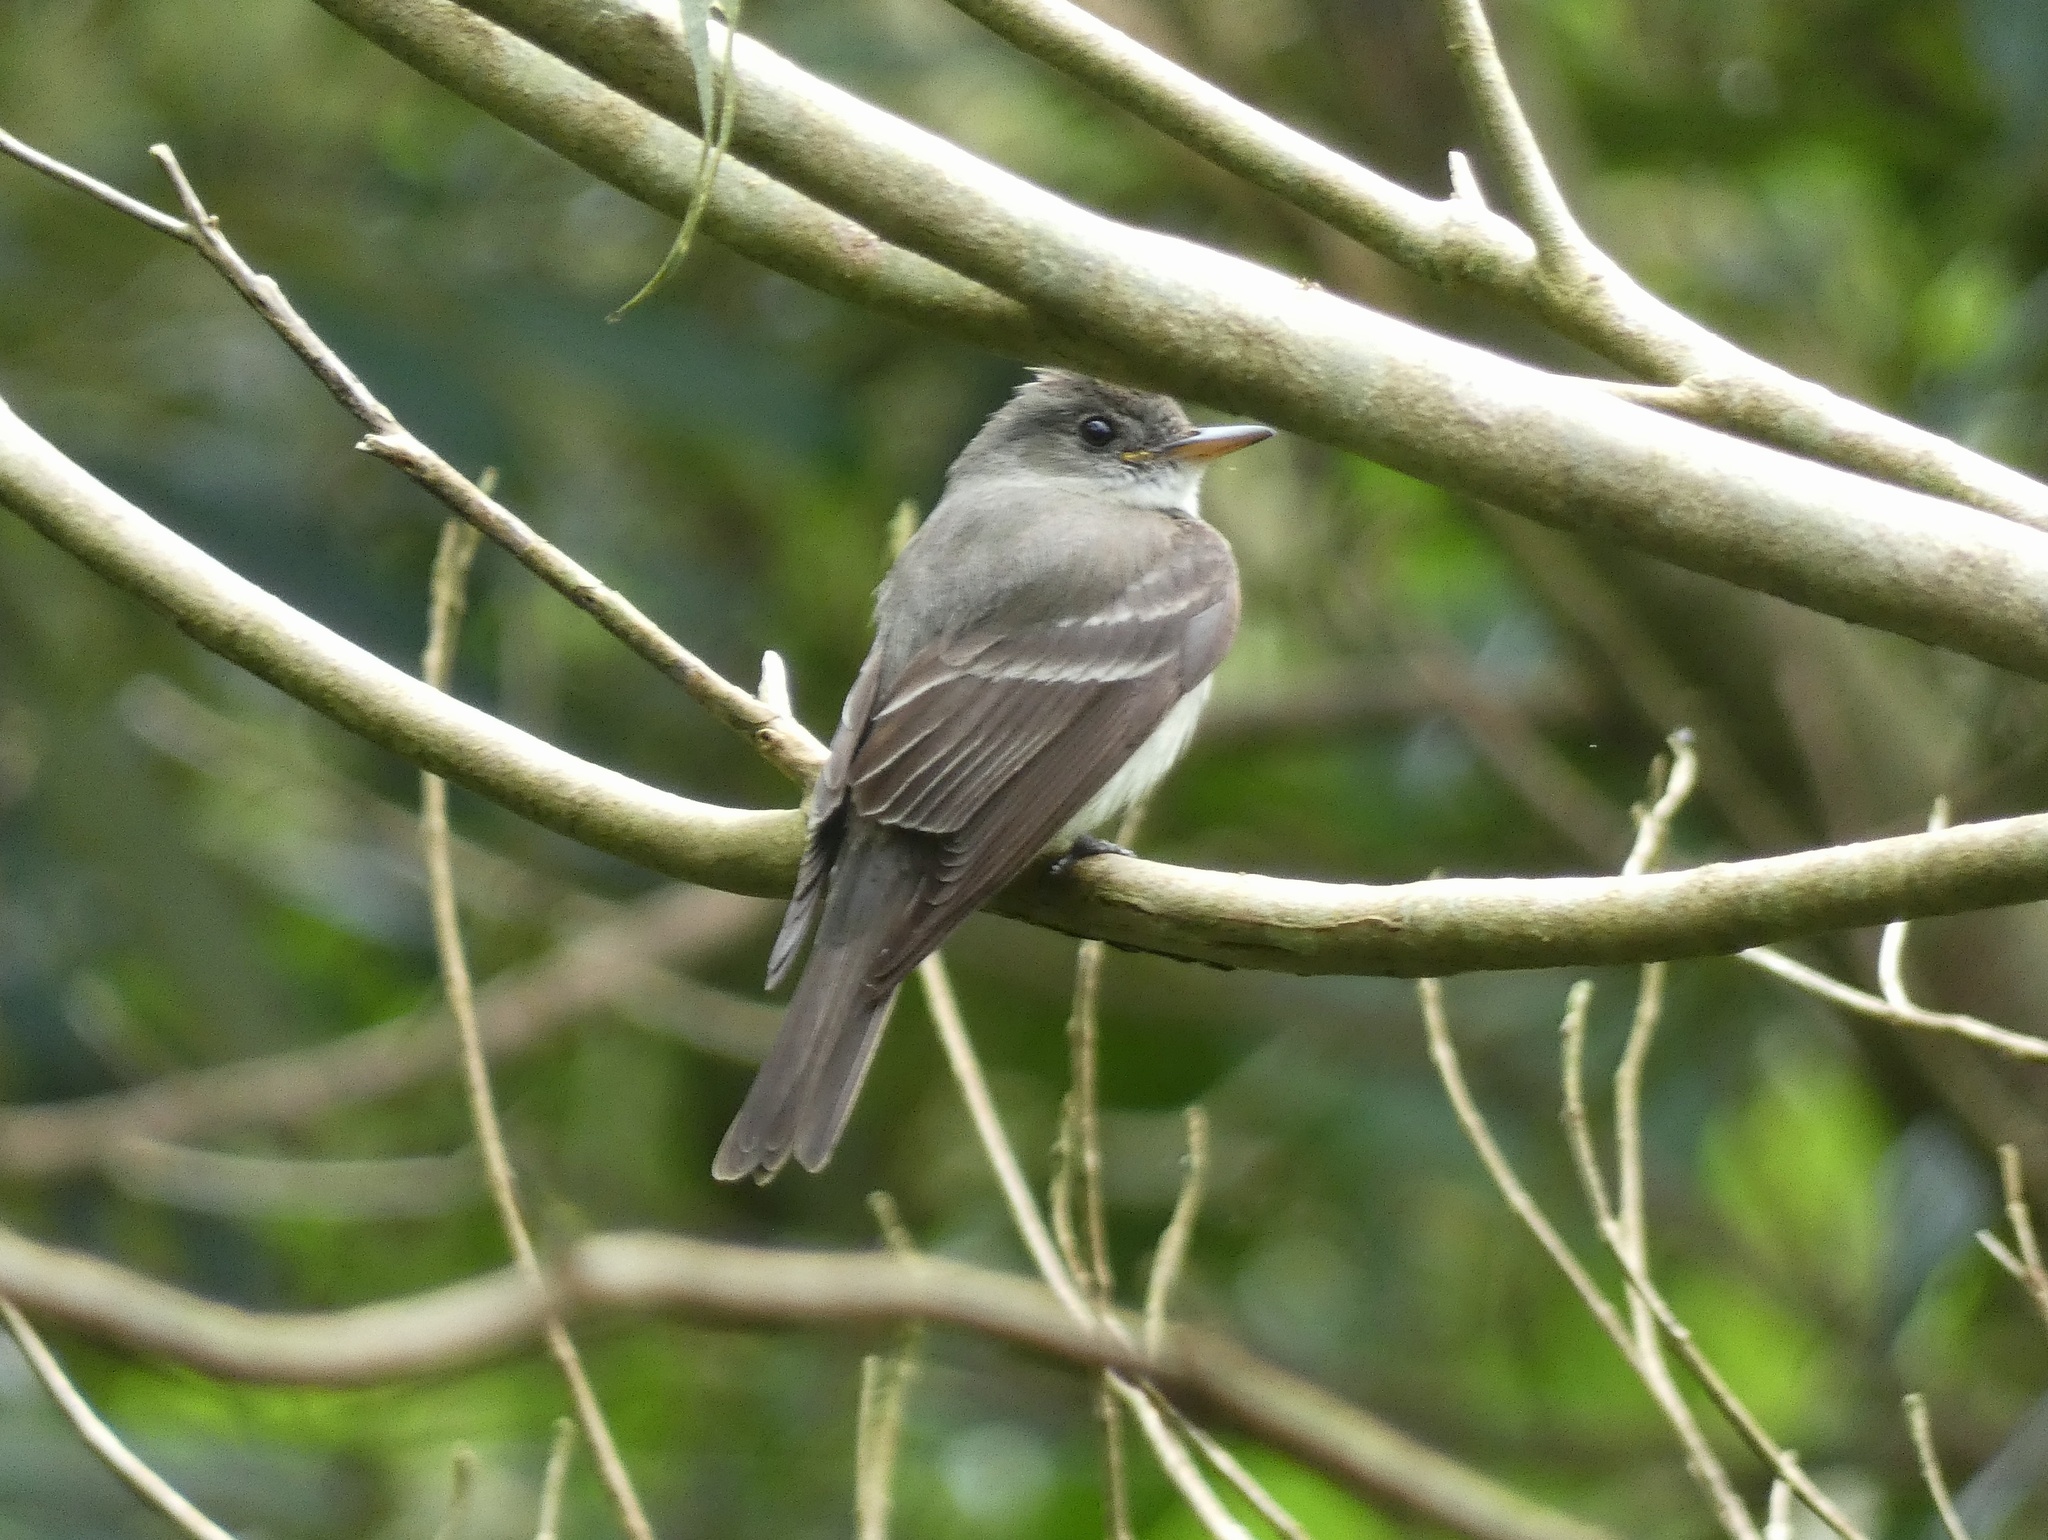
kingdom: Animalia
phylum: Chordata
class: Aves
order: Passeriformes
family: Tyrannidae
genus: Contopus
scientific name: Contopus virens
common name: Eastern wood-pewee
